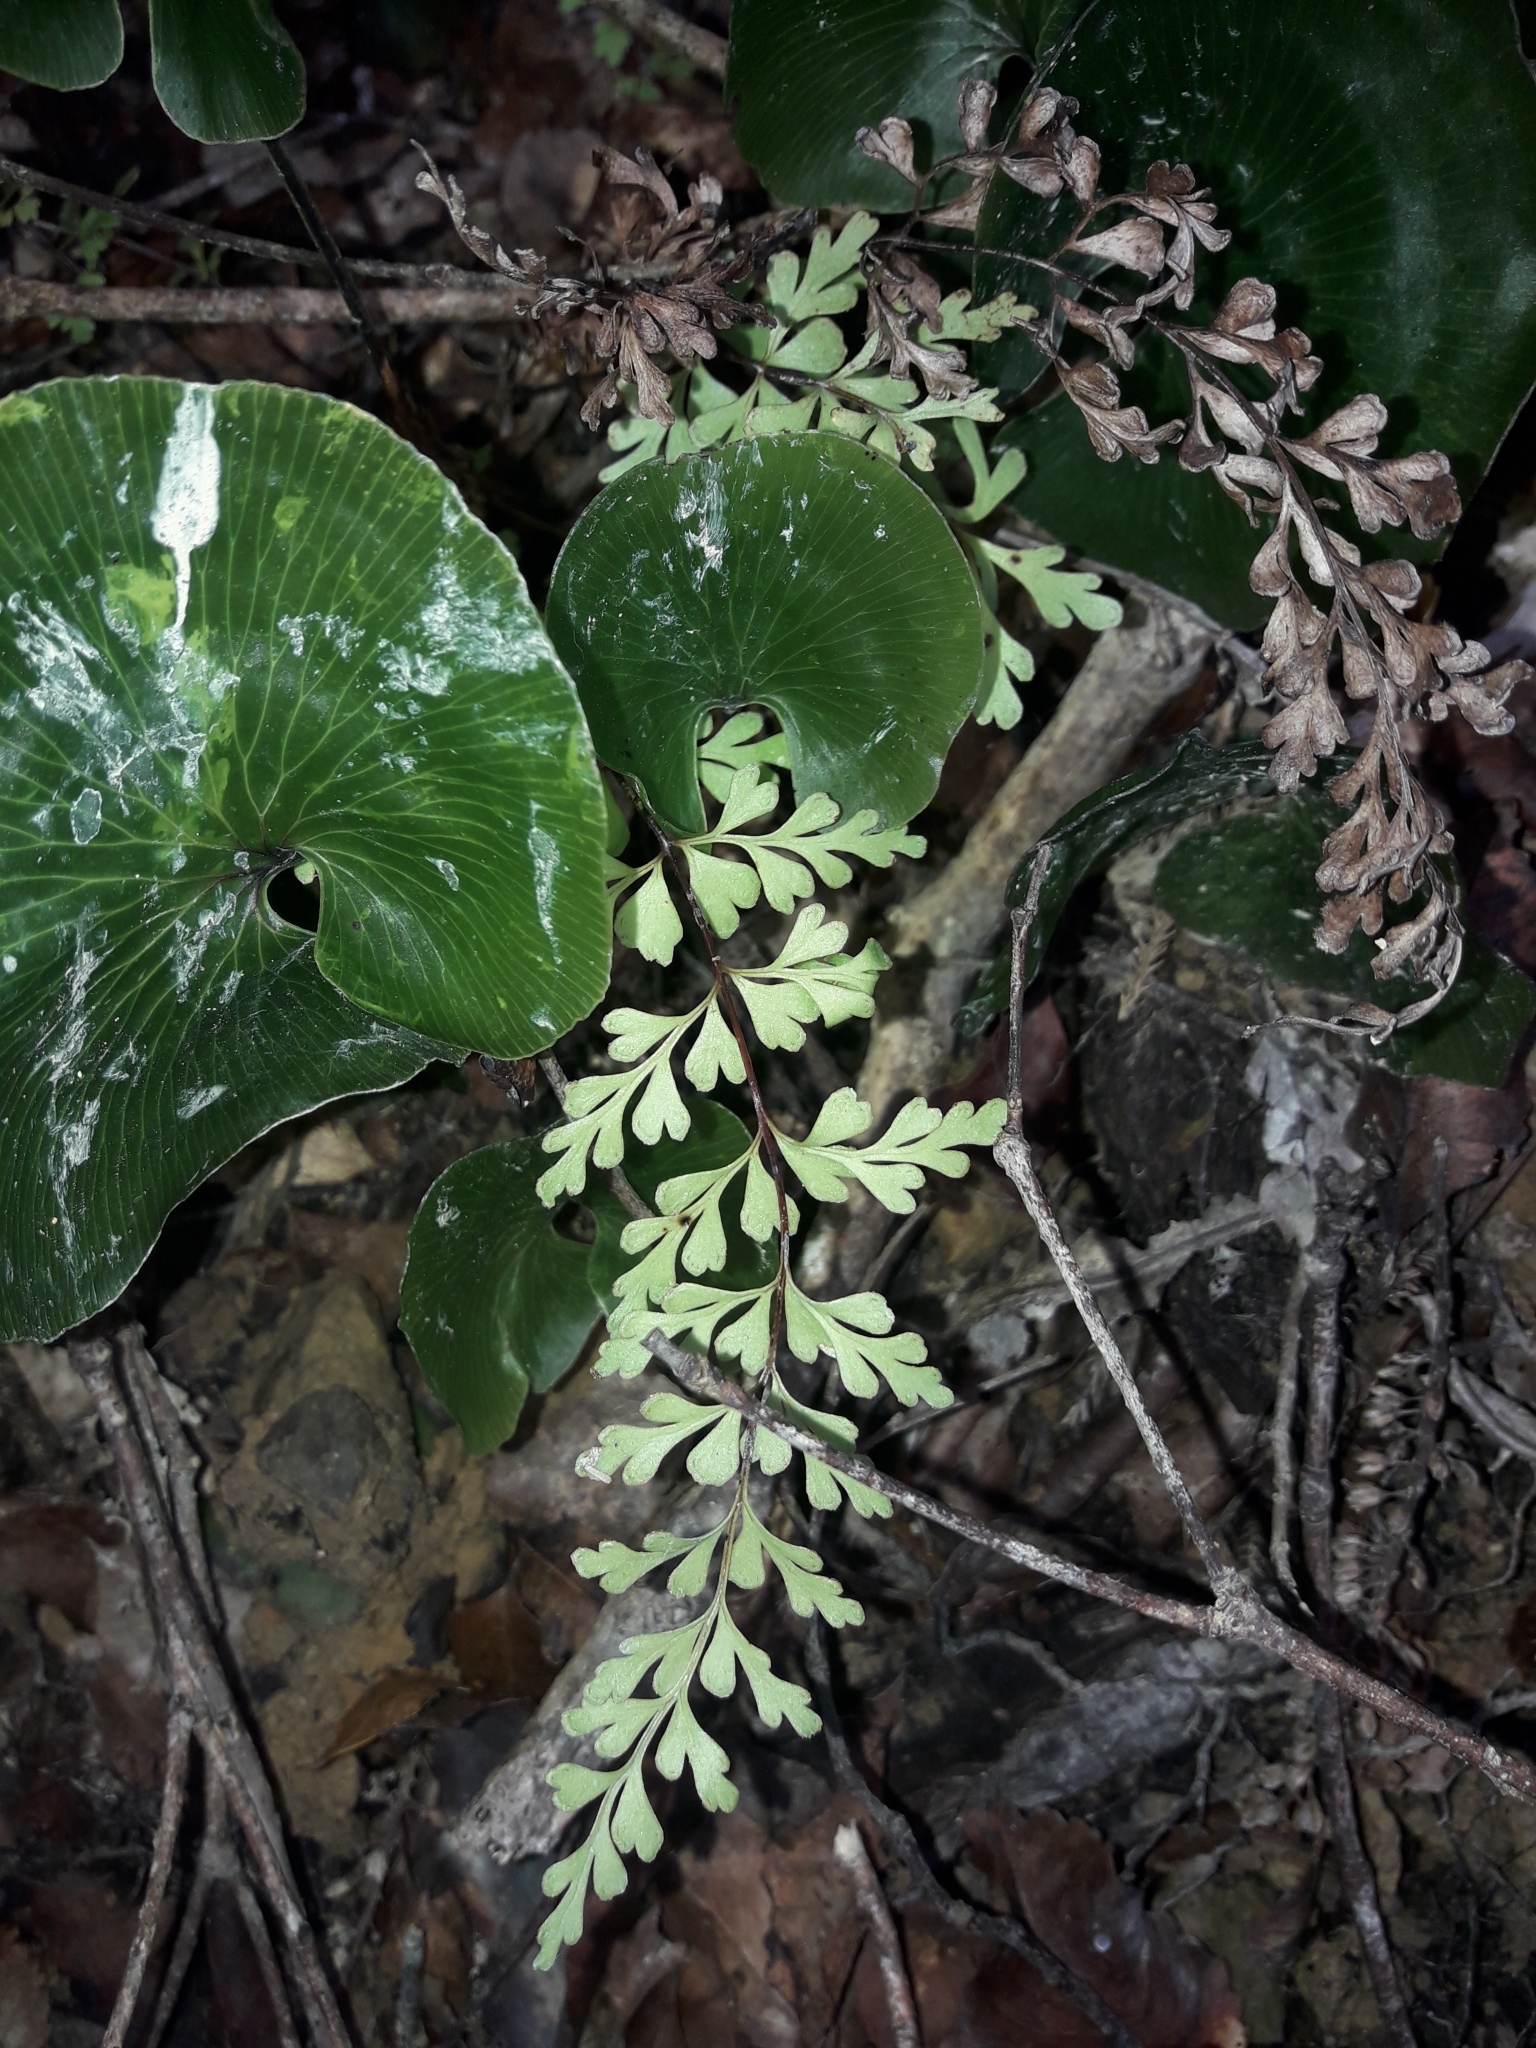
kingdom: Plantae
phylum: Tracheophyta
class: Polypodiopsida
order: Polypodiales
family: Lindsaeaceae
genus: Lindsaea
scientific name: Lindsaea trichomanoides
